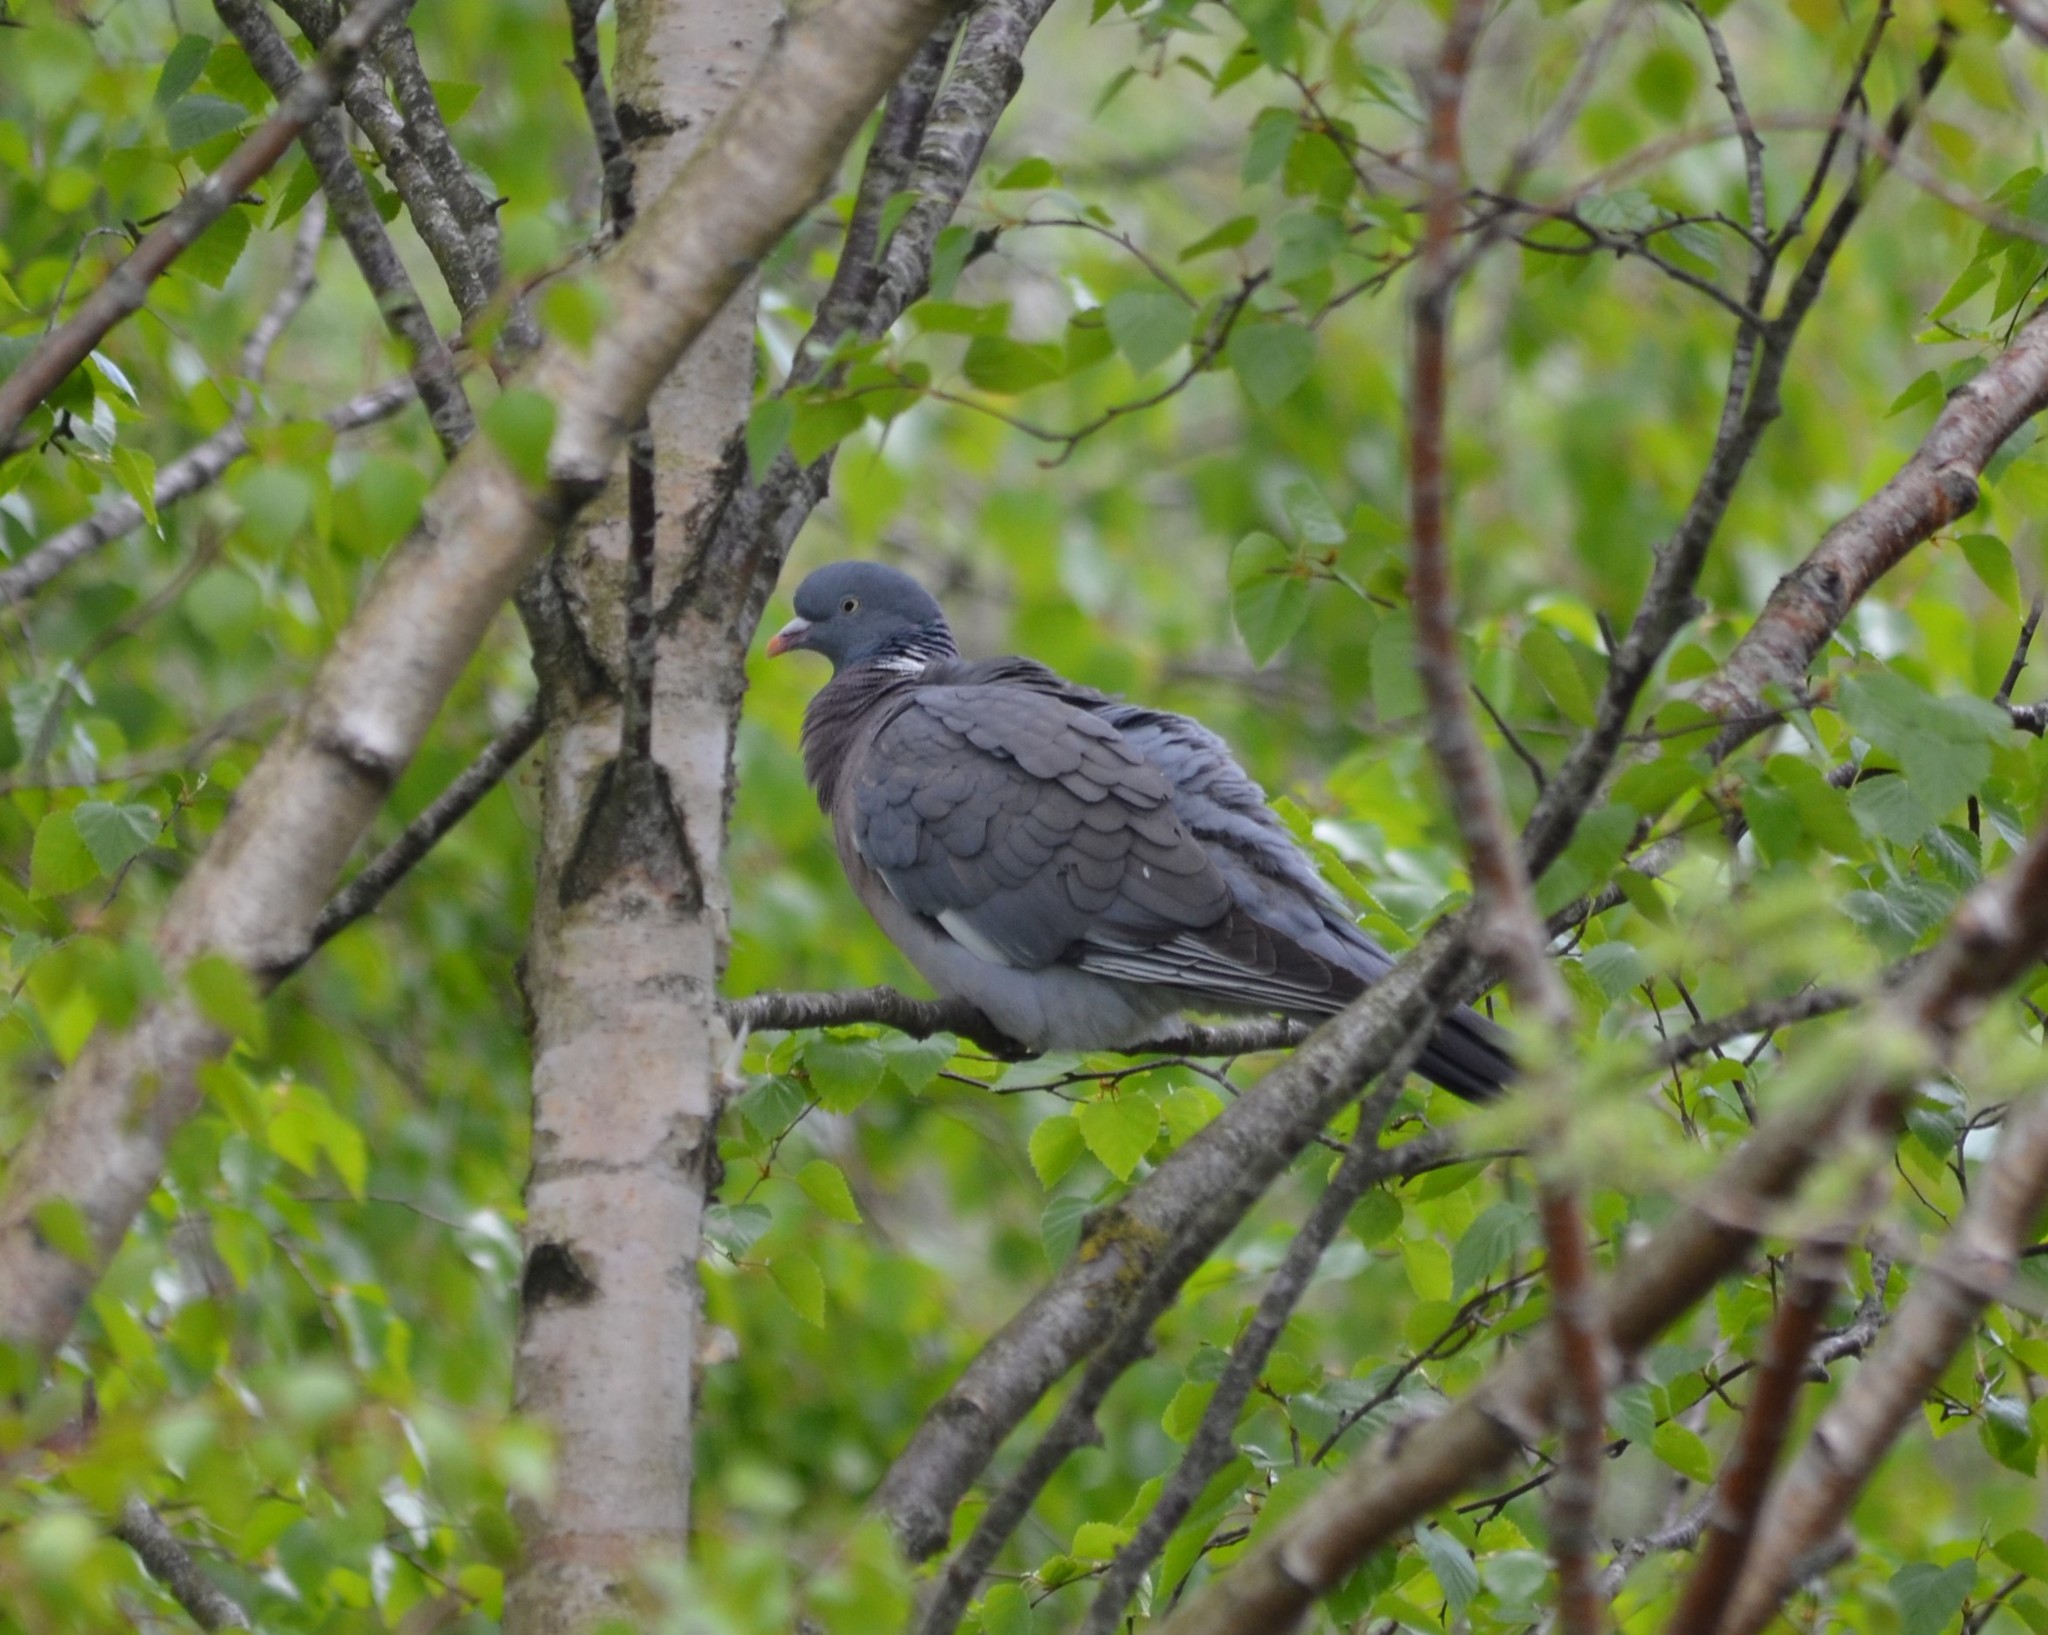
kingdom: Animalia
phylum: Chordata
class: Aves
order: Columbiformes
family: Columbidae
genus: Columba
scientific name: Columba palumbus
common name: Common wood pigeon
